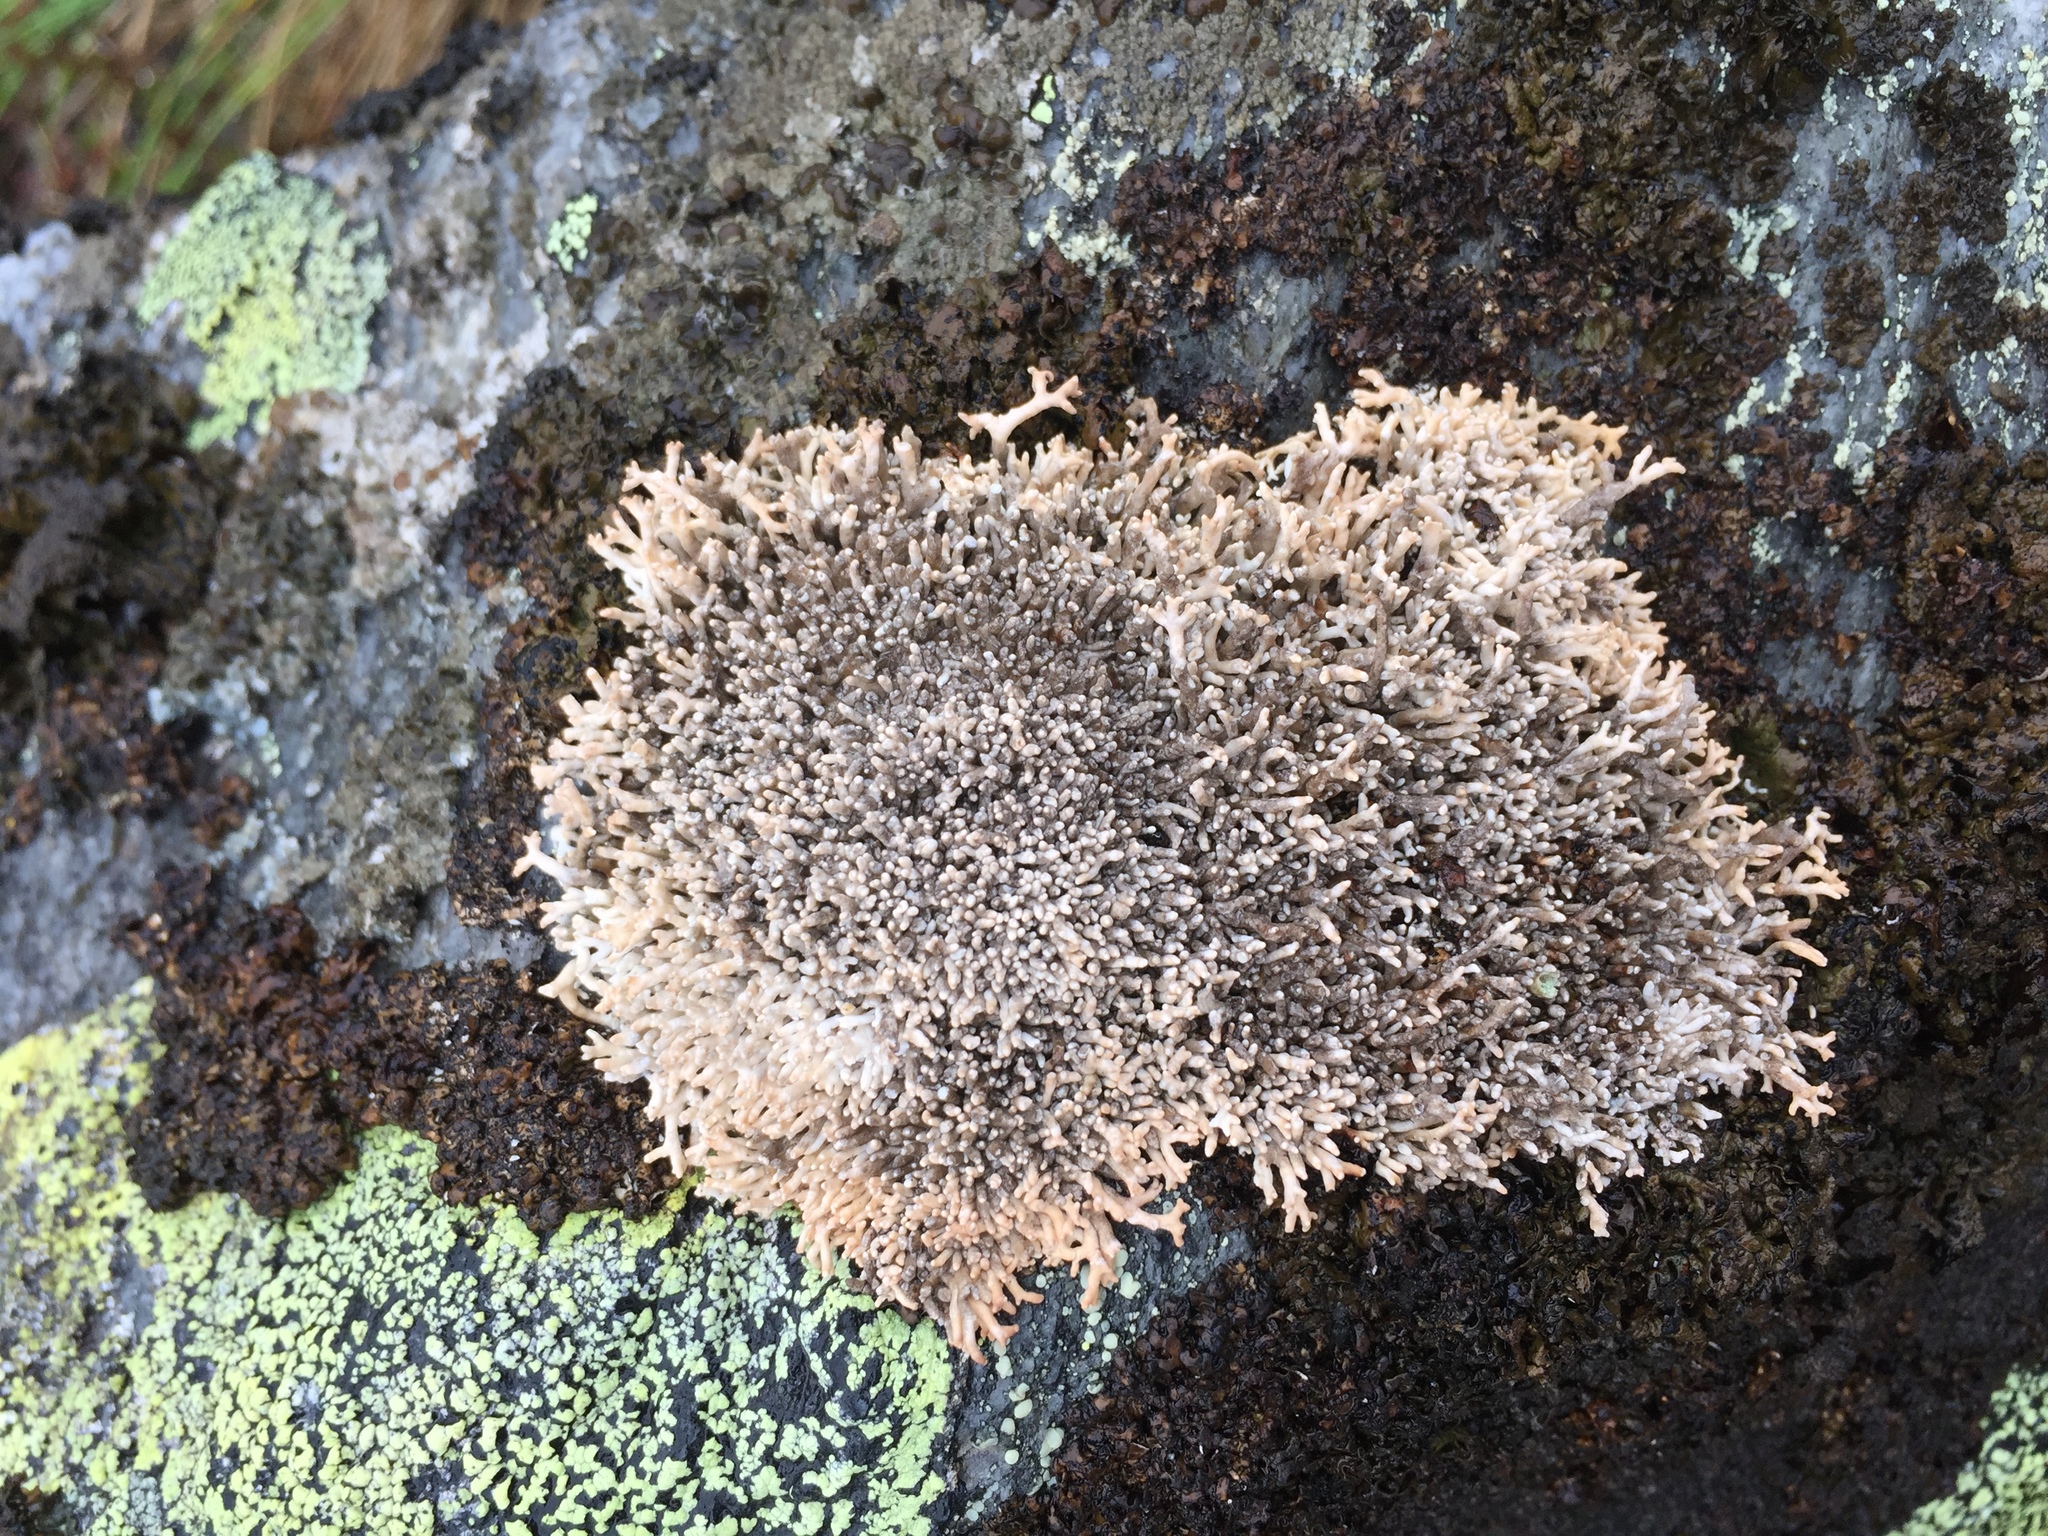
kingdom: Fungi
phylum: Ascomycota
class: Lecanoromycetes
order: Lecanorales
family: Sphaerophoraceae
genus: Sphaerophorus
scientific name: Sphaerophorus fragilis
